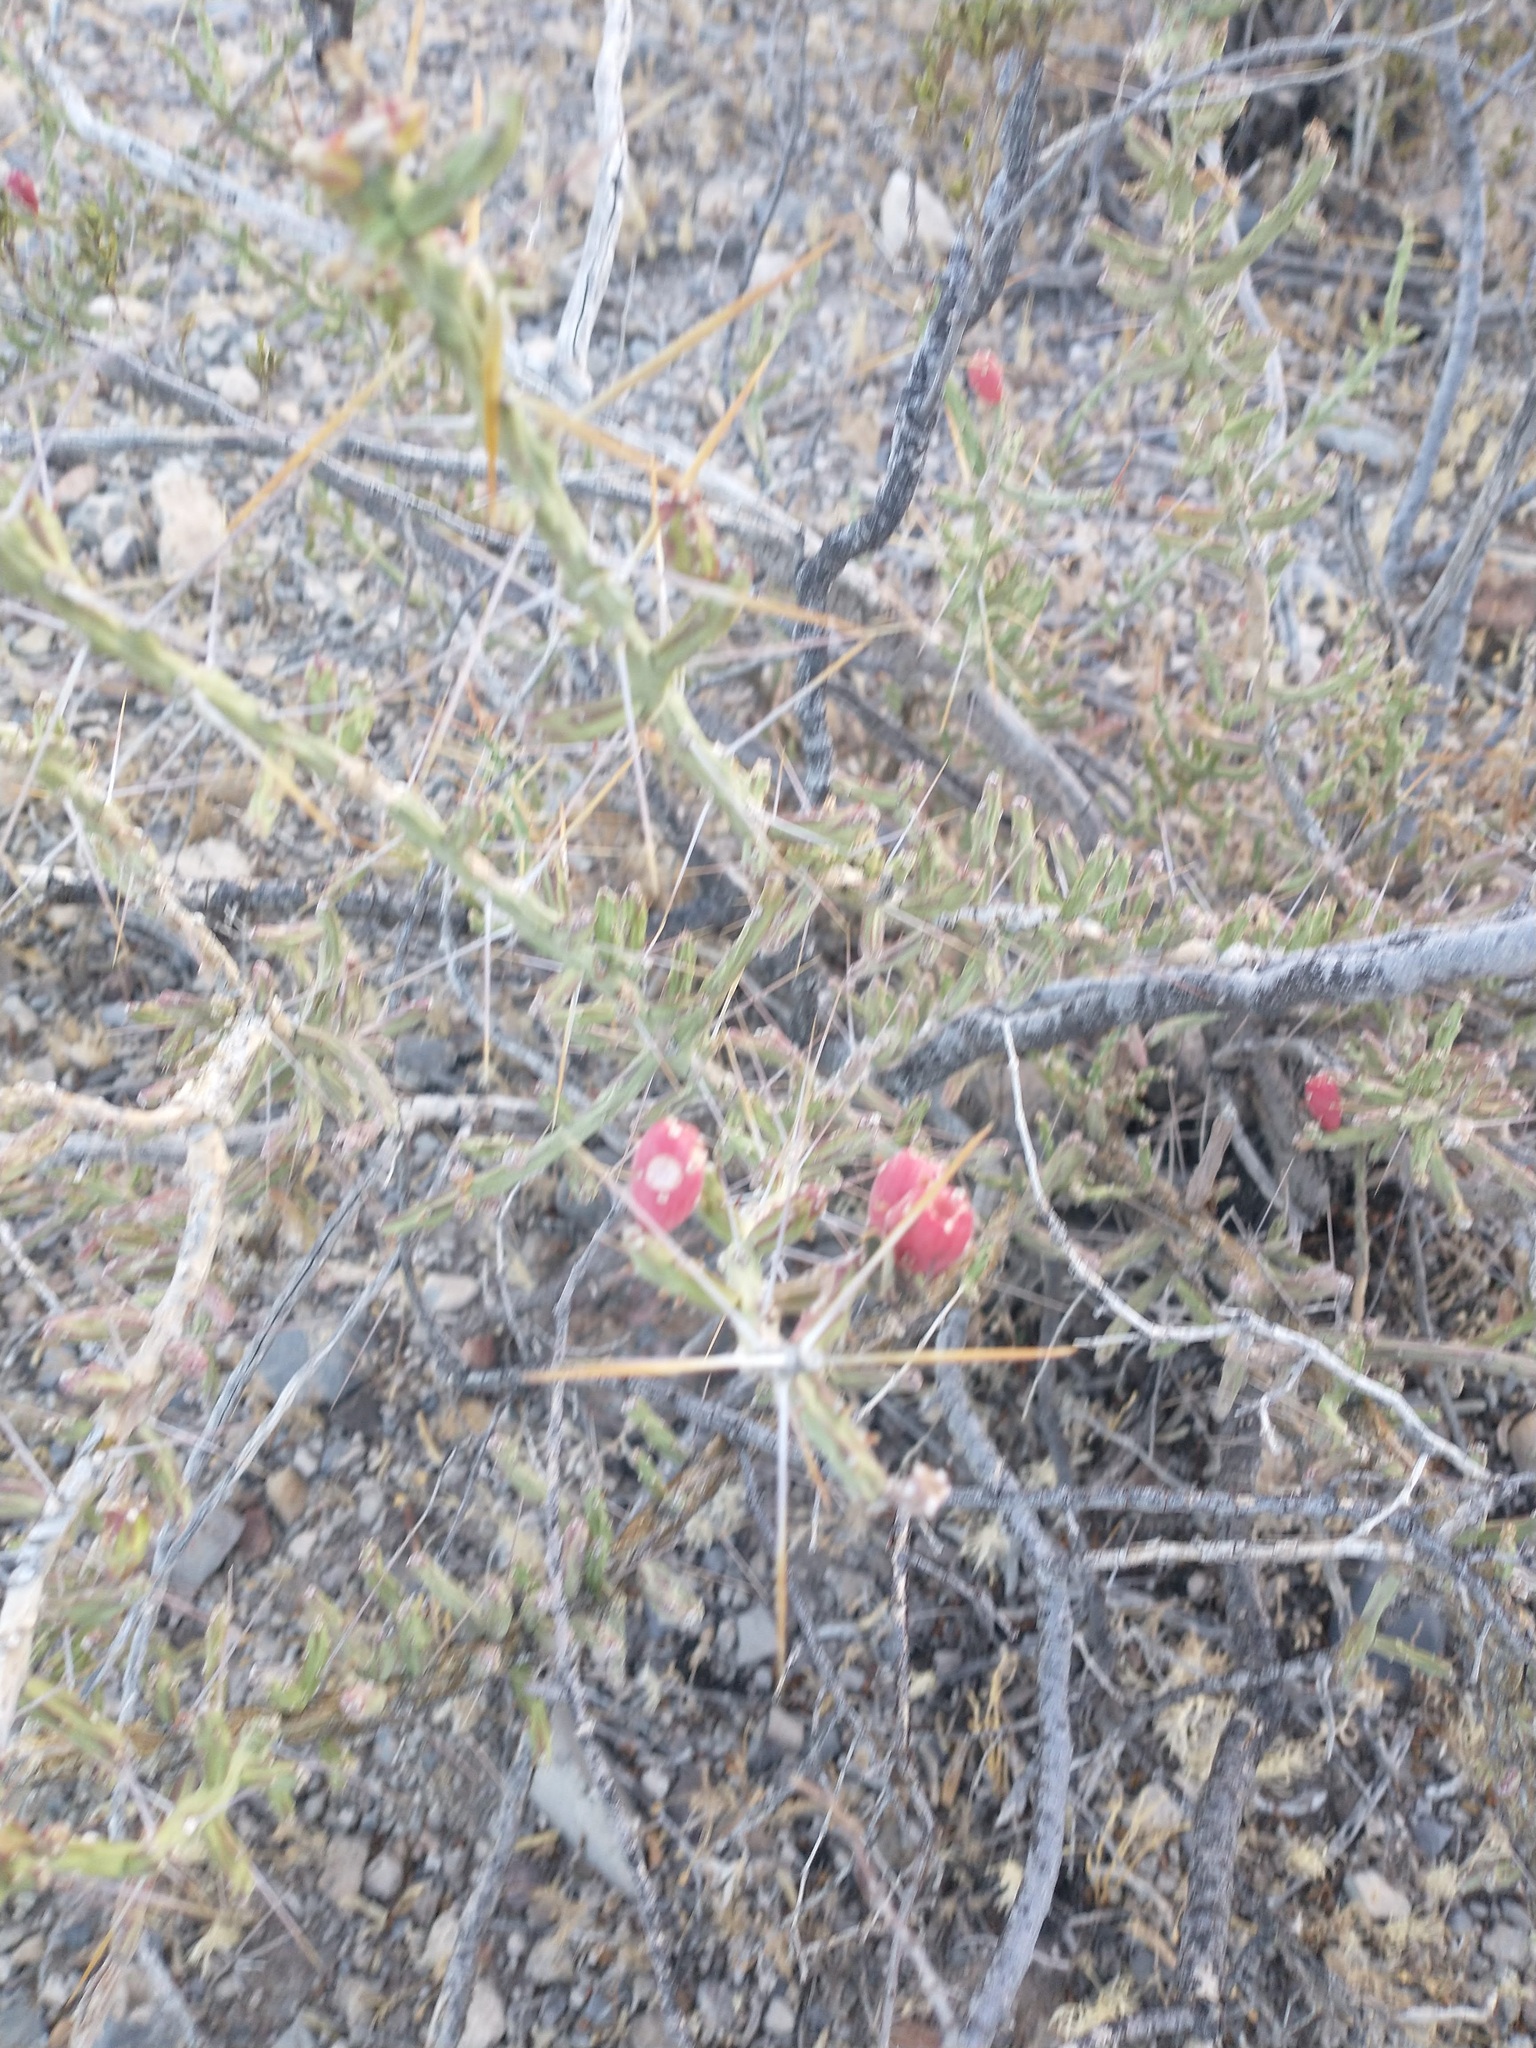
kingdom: Plantae
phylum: Tracheophyta
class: Magnoliopsida
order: Caryophyllales
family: Cactaceae
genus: Cylindropuntia
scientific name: Cylindropuntia kleiniae
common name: Klein's cholla
